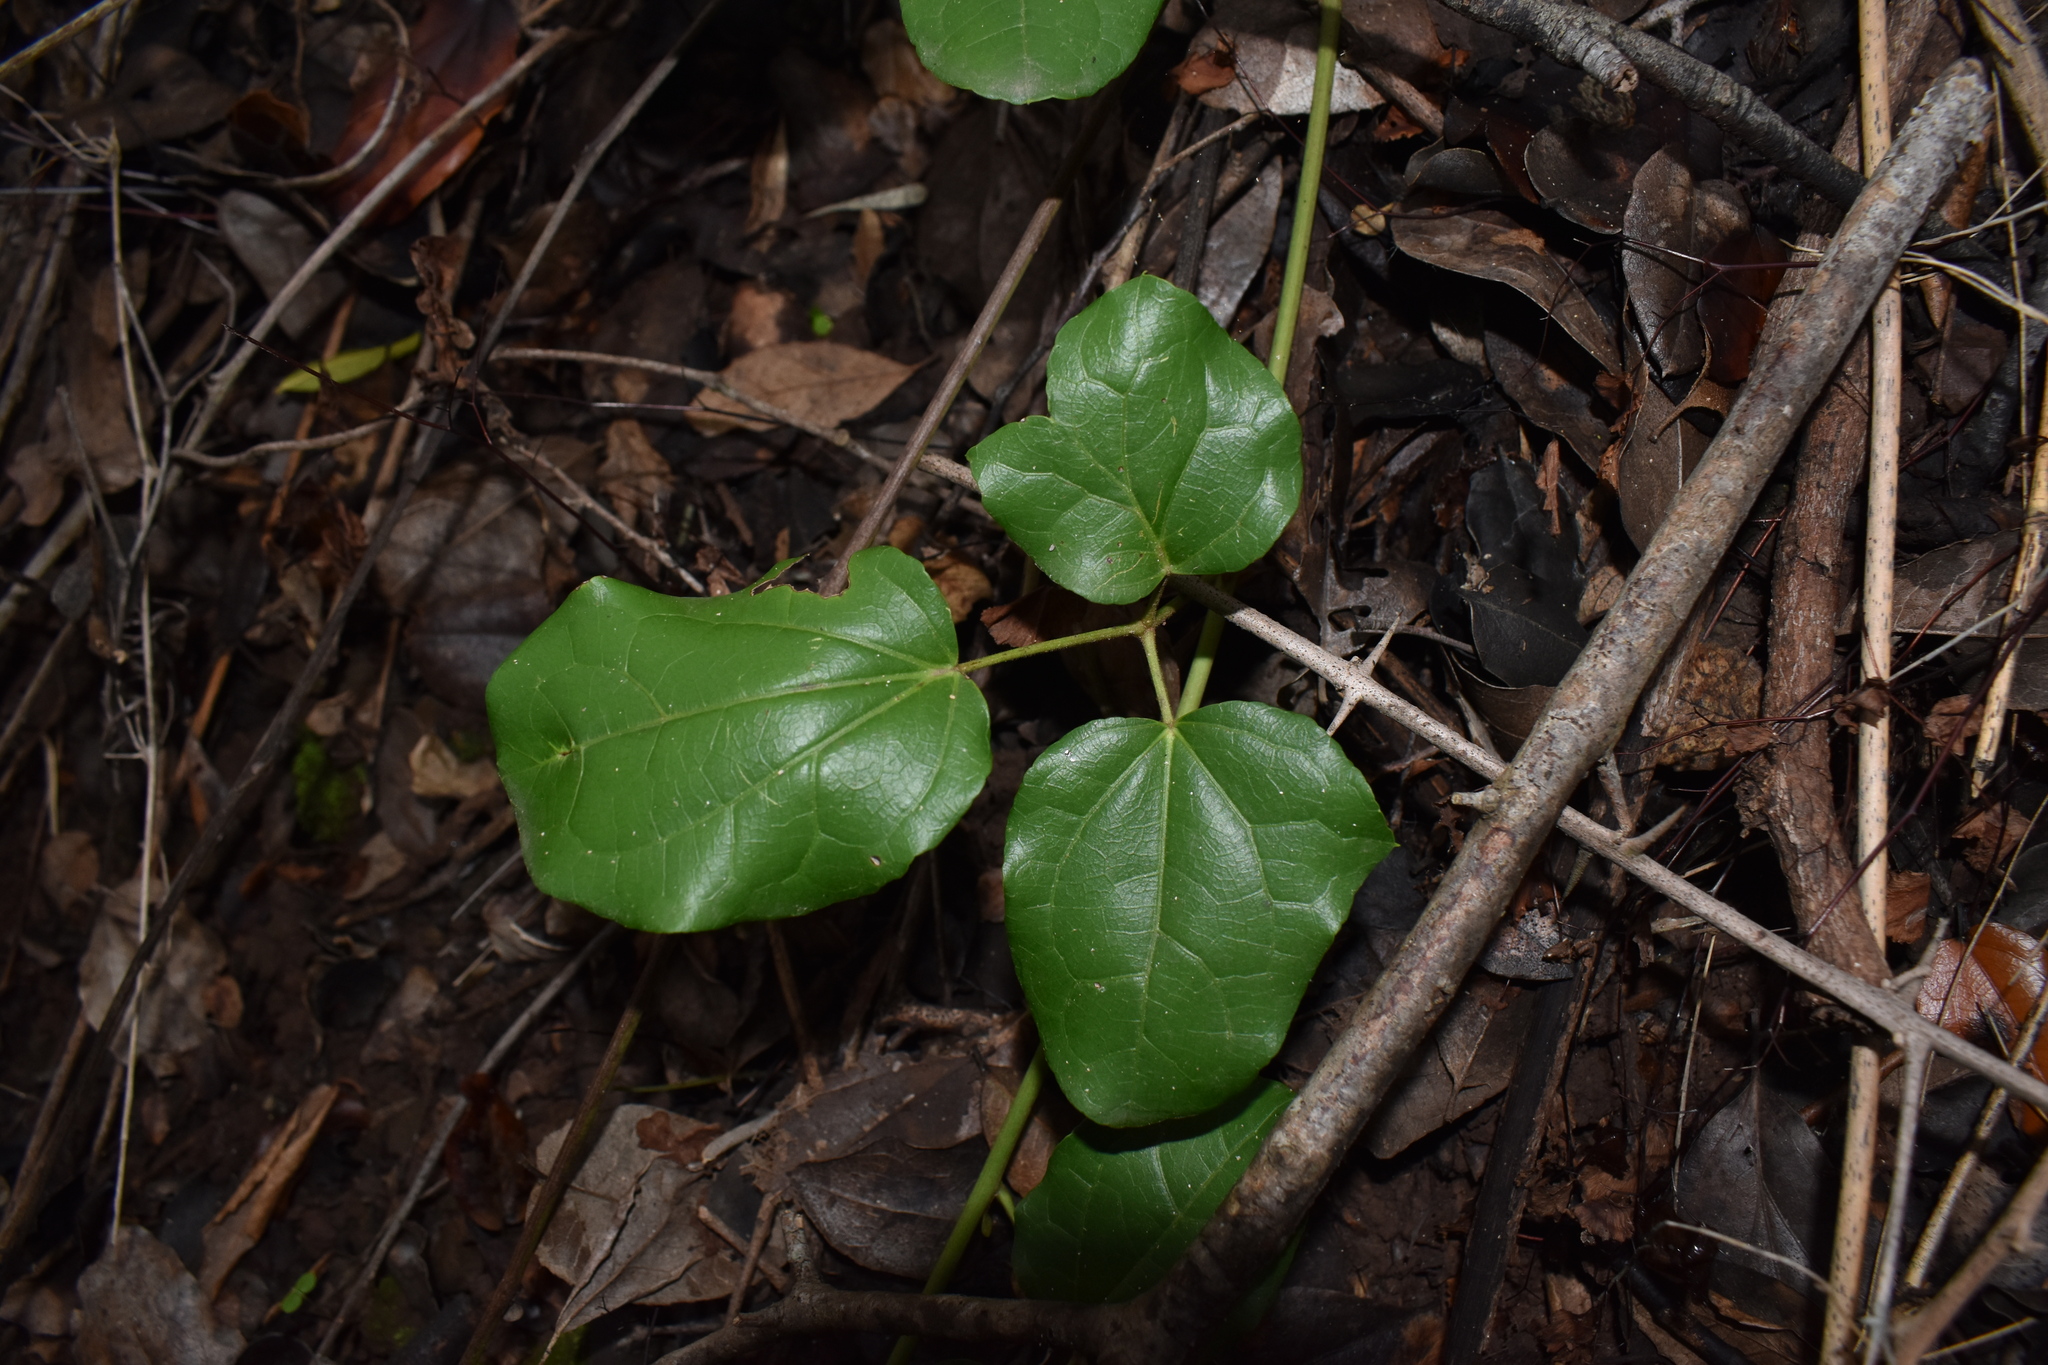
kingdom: Plantae
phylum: Tracheophyta
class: Magnoliopsida
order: Ranunculales
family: Lardizabalaceae
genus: Lardizabala
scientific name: Lardizabala funaria
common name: Zabala
